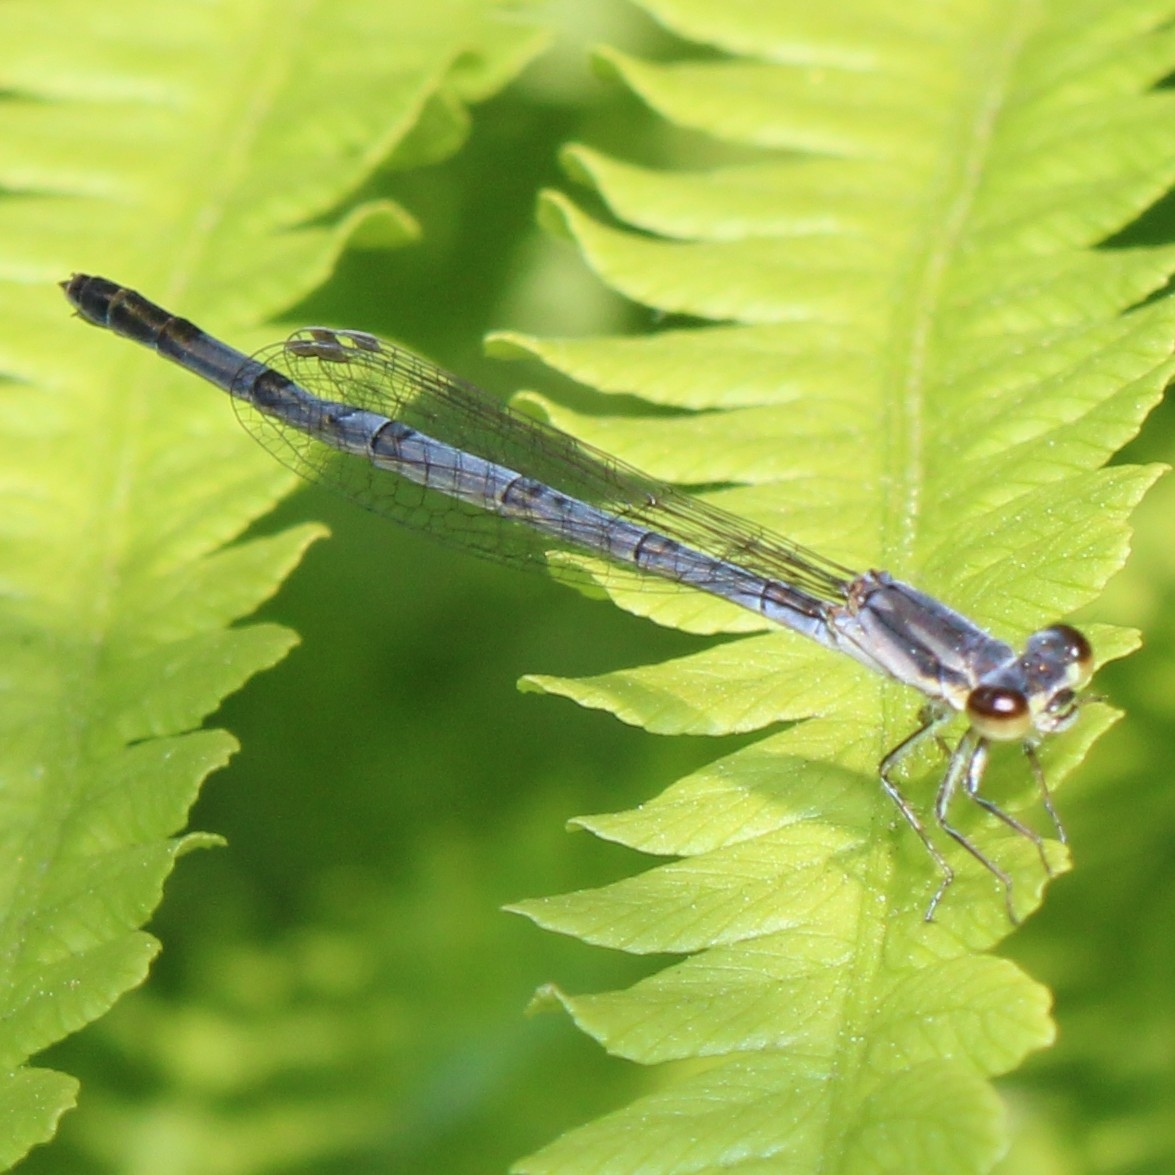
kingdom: Animalia
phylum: Arthropoda
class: Insecta
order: Odonata
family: Coenagrionidae
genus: Ischnura
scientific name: Ischnura posita
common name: Fragile forktail
